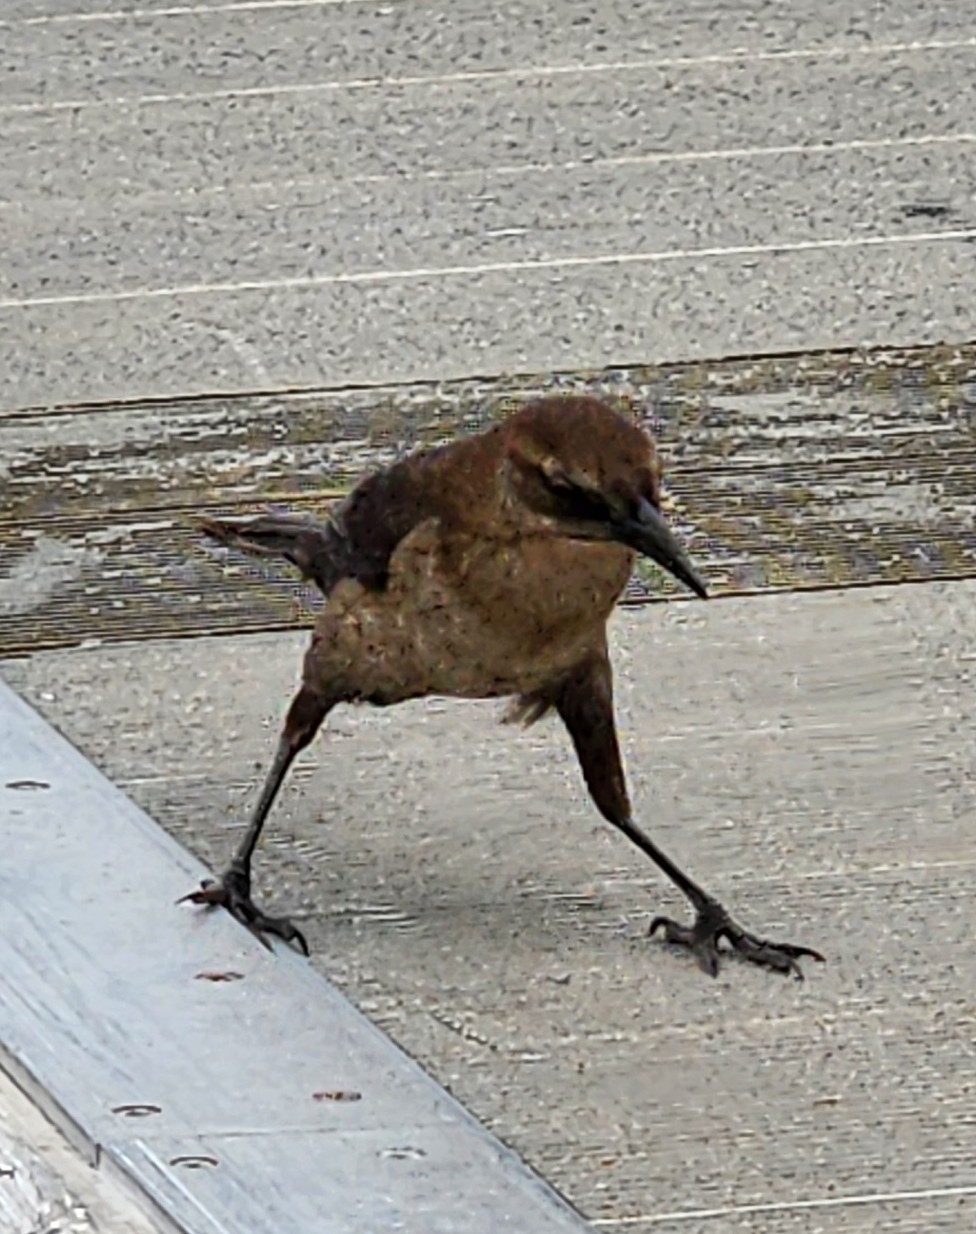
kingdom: Animalia
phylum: Chordata
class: Aves
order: Passeriformes
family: Icteridae
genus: Quiscalus
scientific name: Quiscalus major
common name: Boat-tailed grackle
